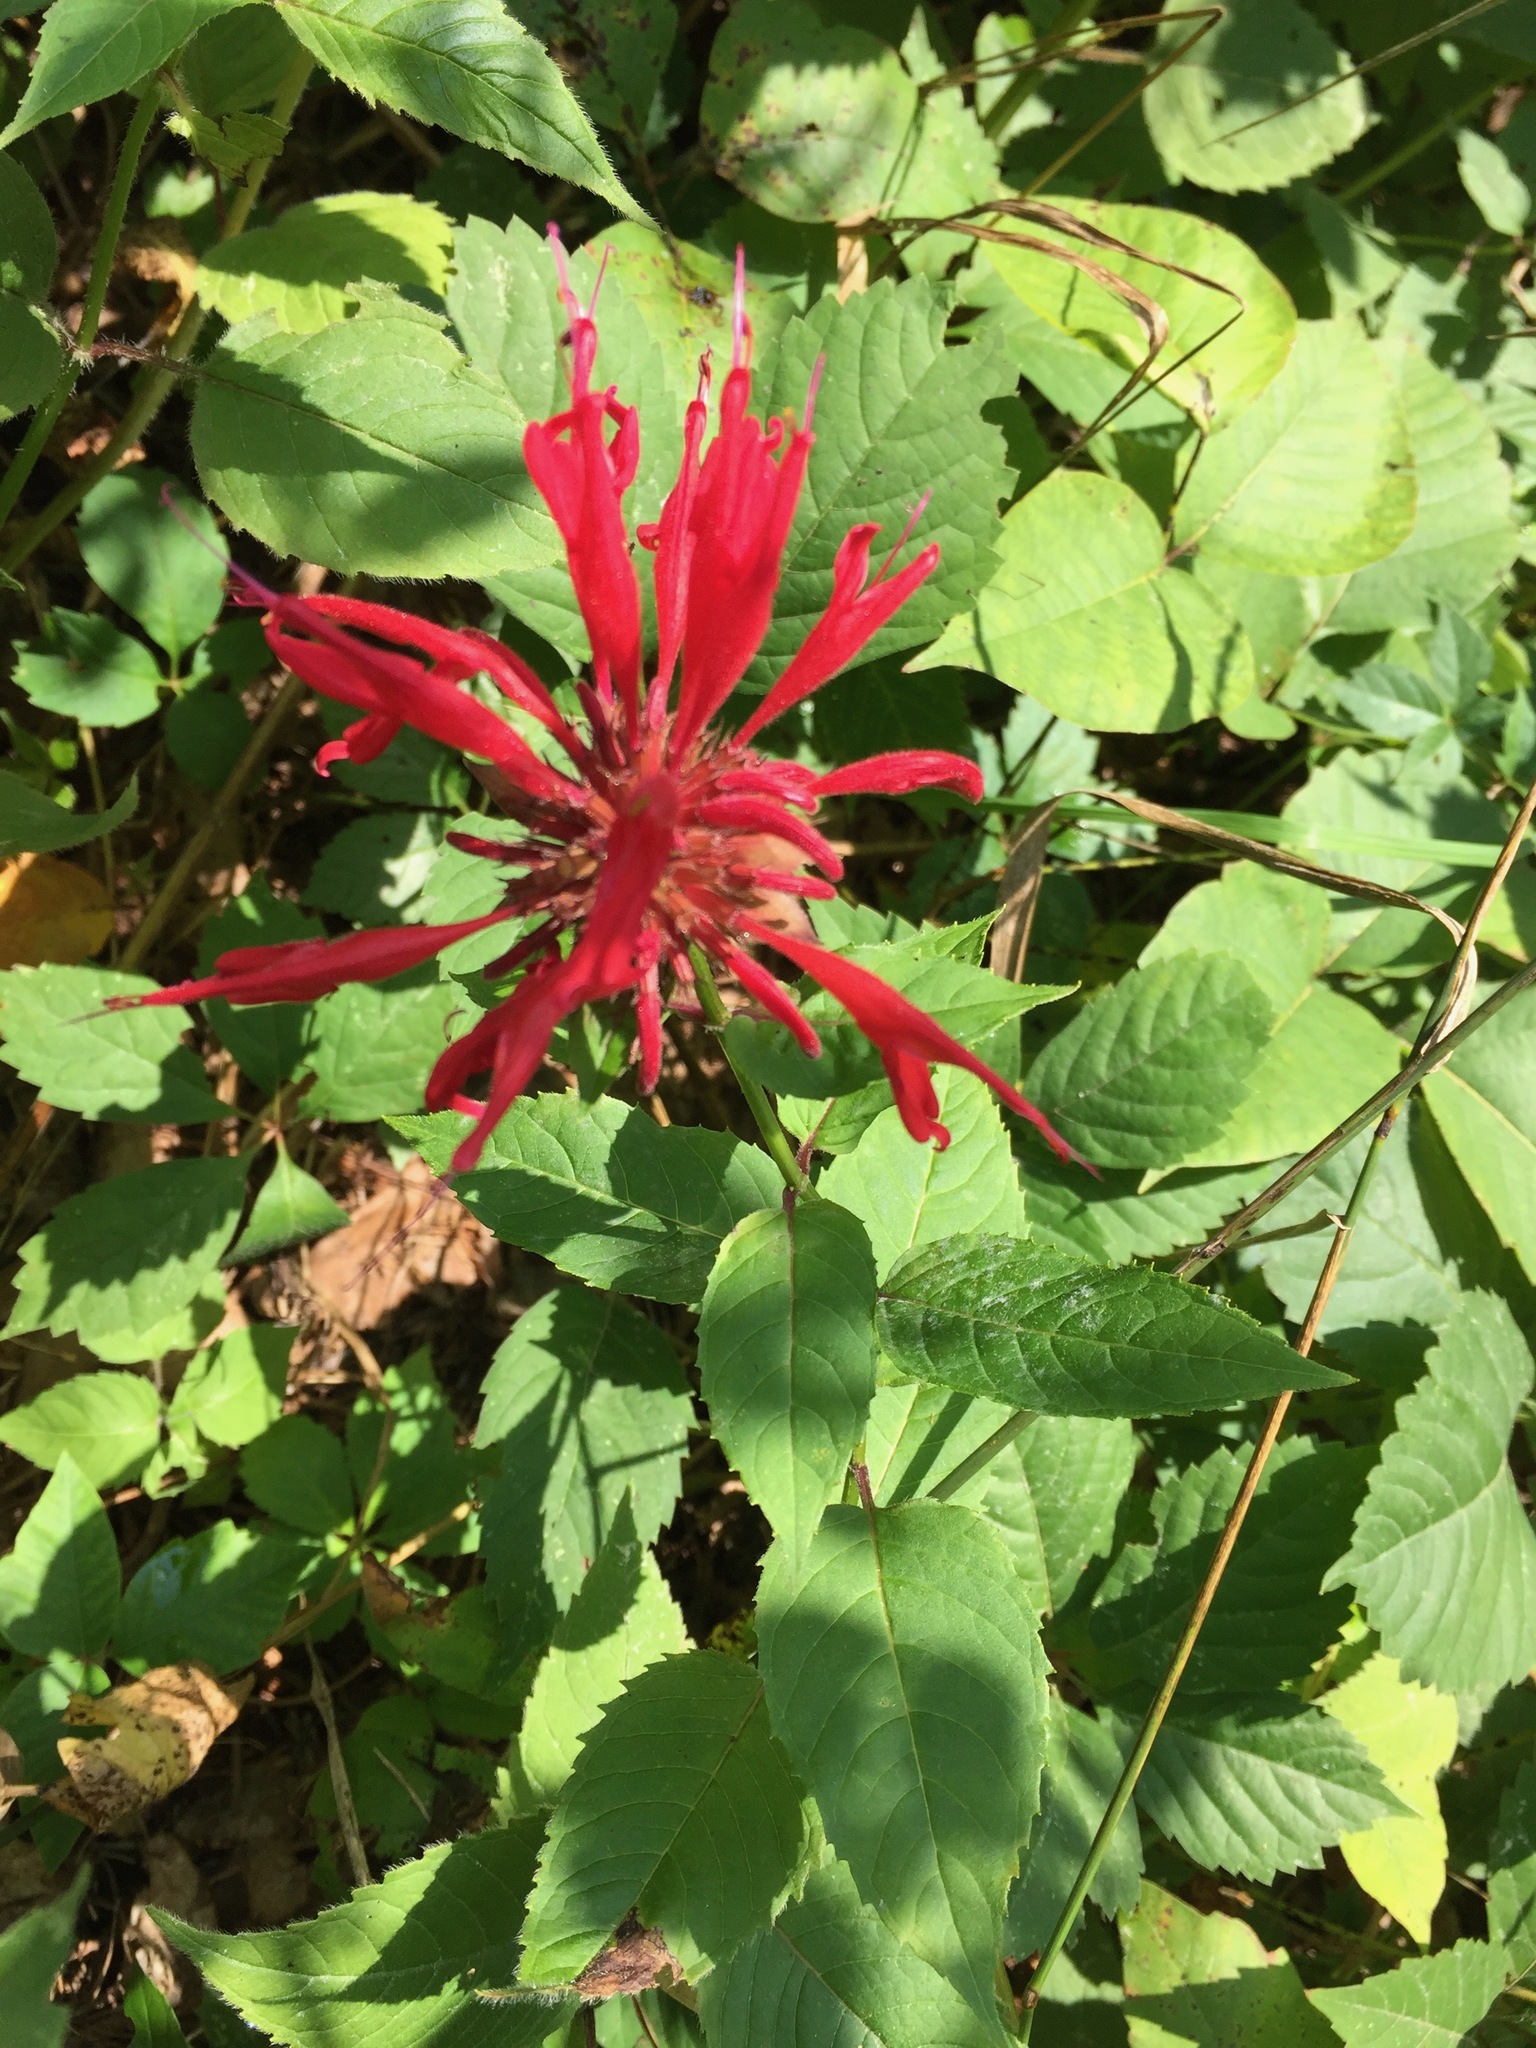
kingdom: Plantae
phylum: Tracheophyta
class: Magnoliopsida
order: Lamiales
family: Lamiaceae
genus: Monarda
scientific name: Monarda didyma
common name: Beebalm
